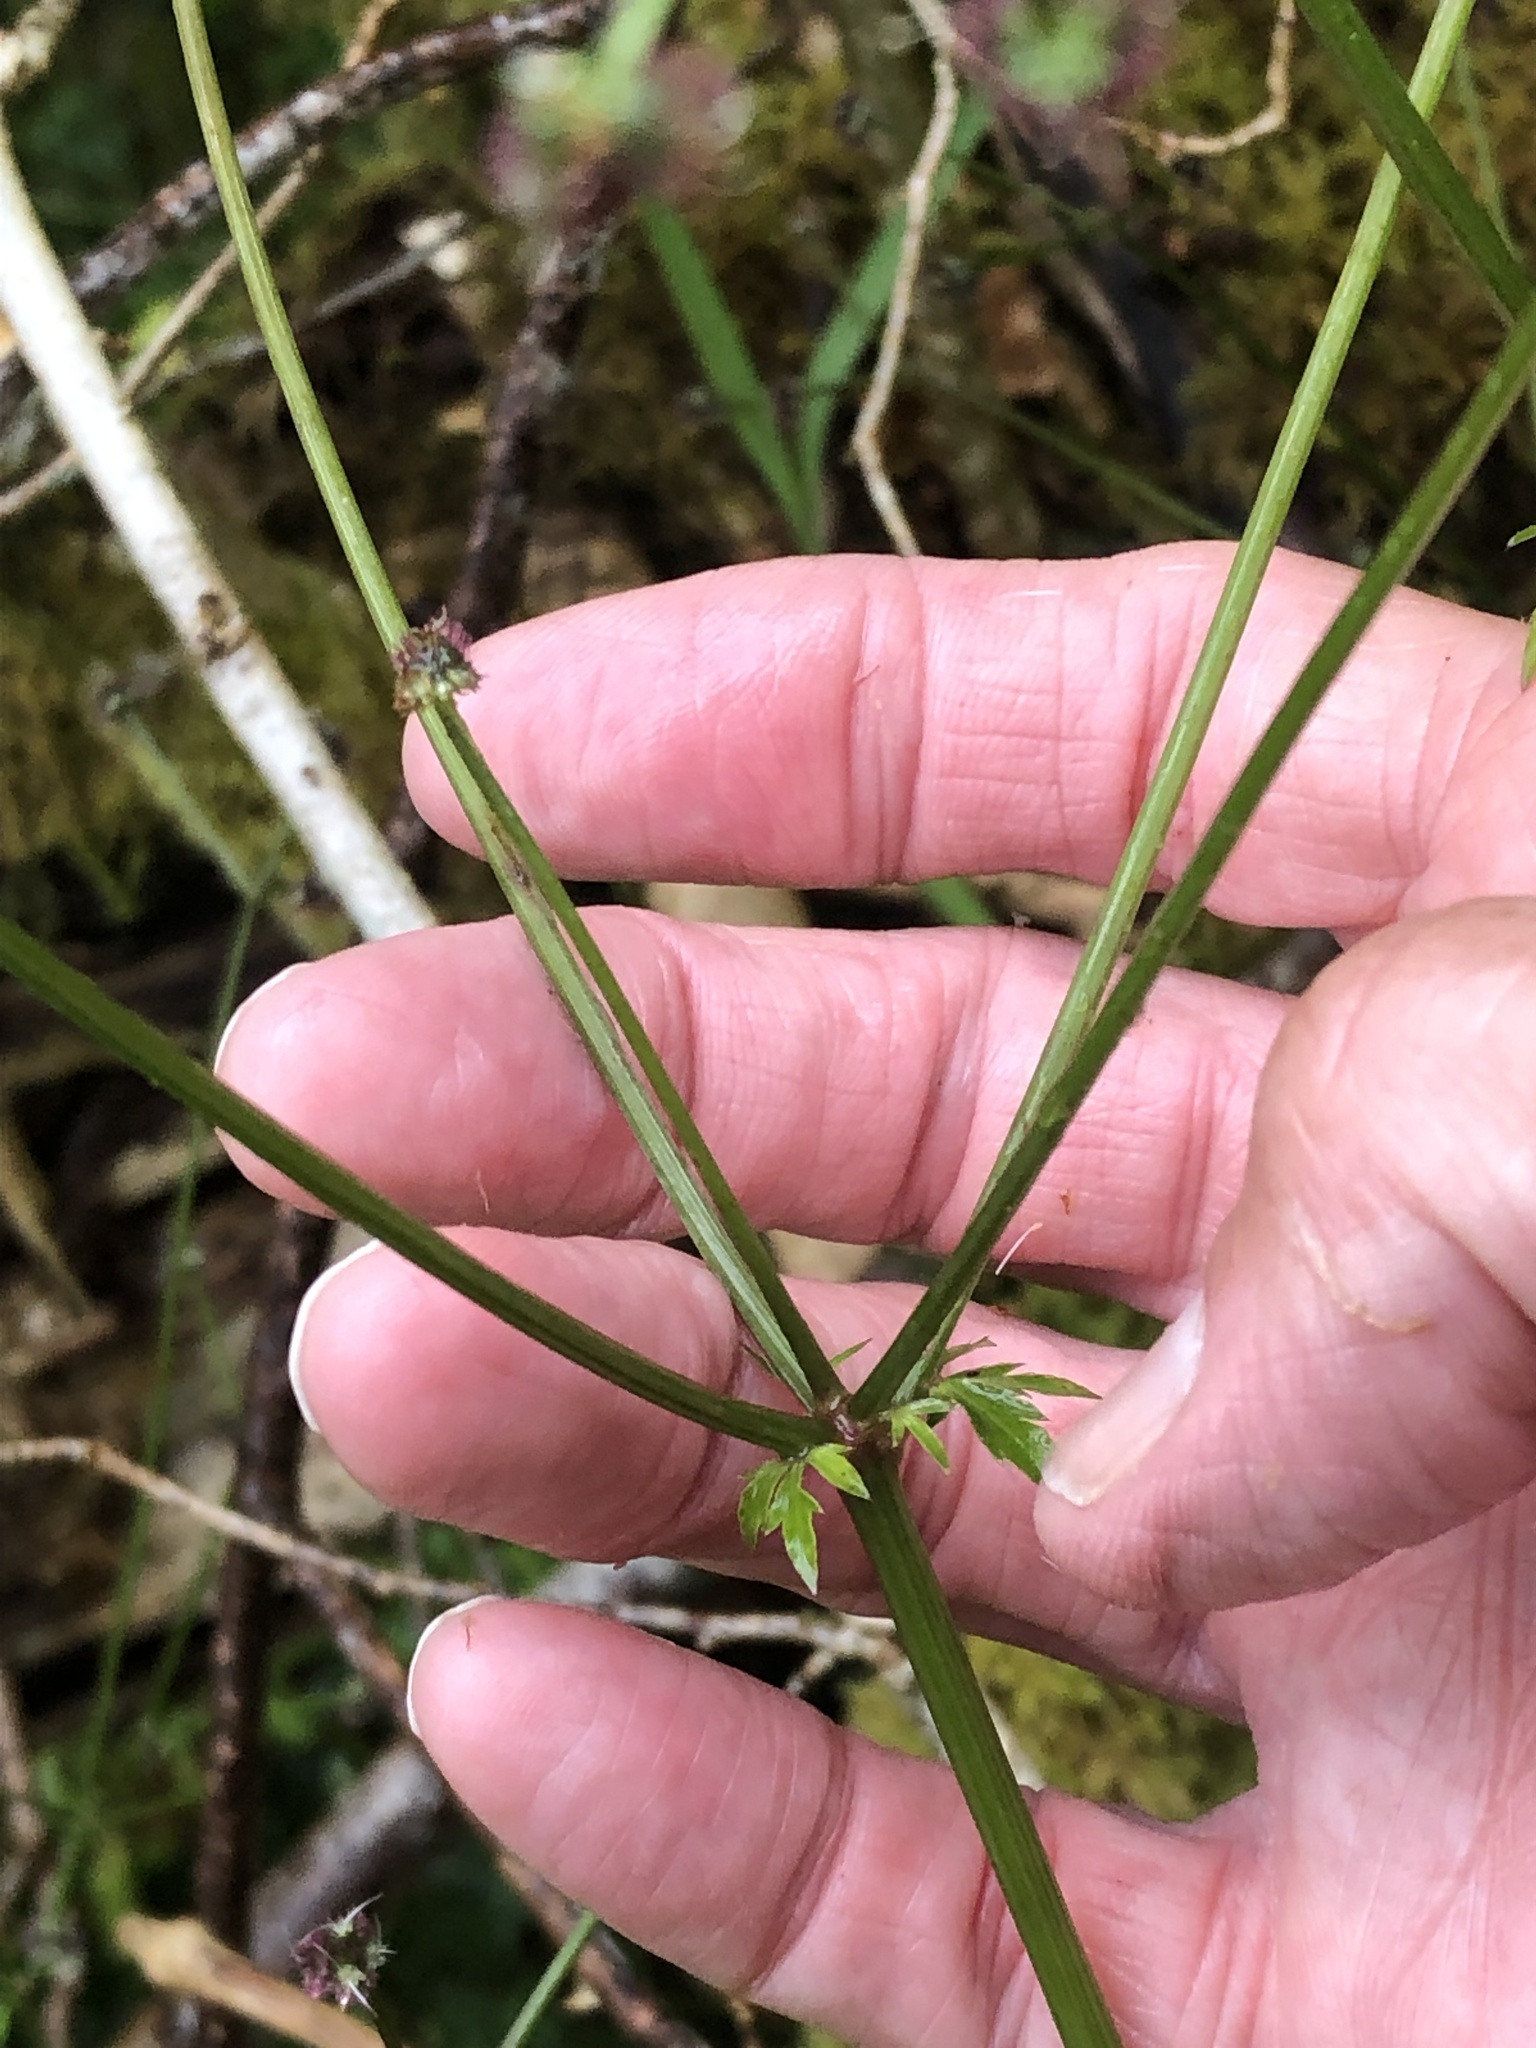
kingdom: Plantae
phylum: Tracheophyta
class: Magnoliopsida
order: Apiales
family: Apiaceae
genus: Sanicula
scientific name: Sanicula europaea
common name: Sanicle
